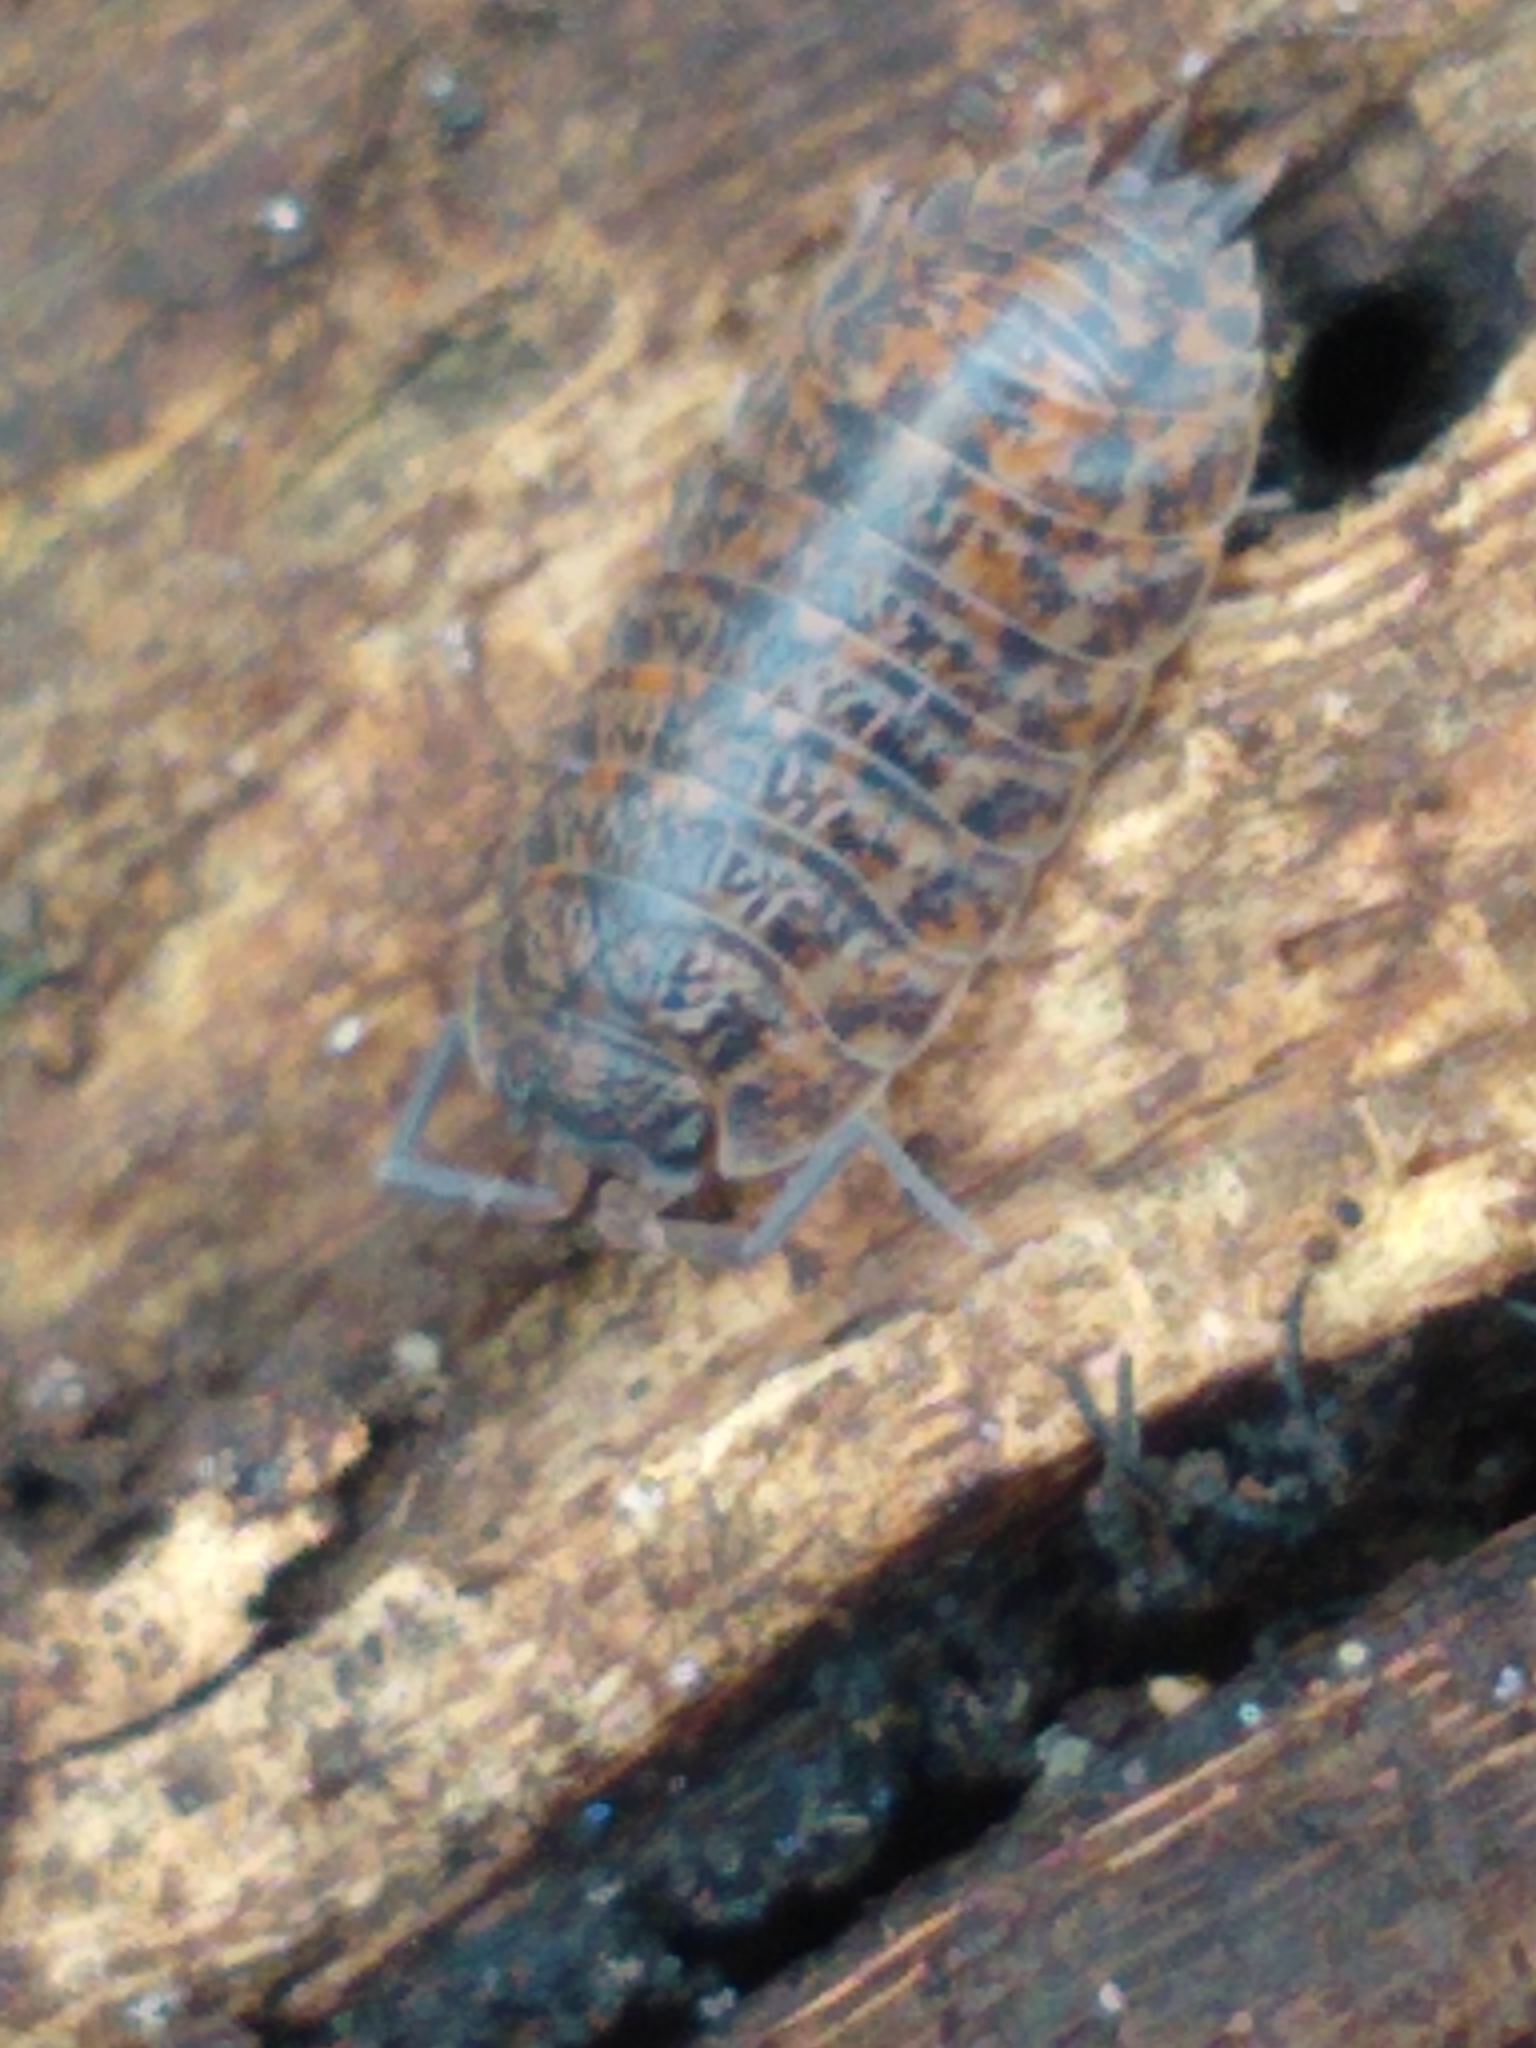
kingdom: Animalia
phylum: Arthropoda
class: Malacostraca
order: Isopoda
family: Trachelipodidae
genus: Trachelipus
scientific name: Trachelipus rathkii
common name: Isopod
